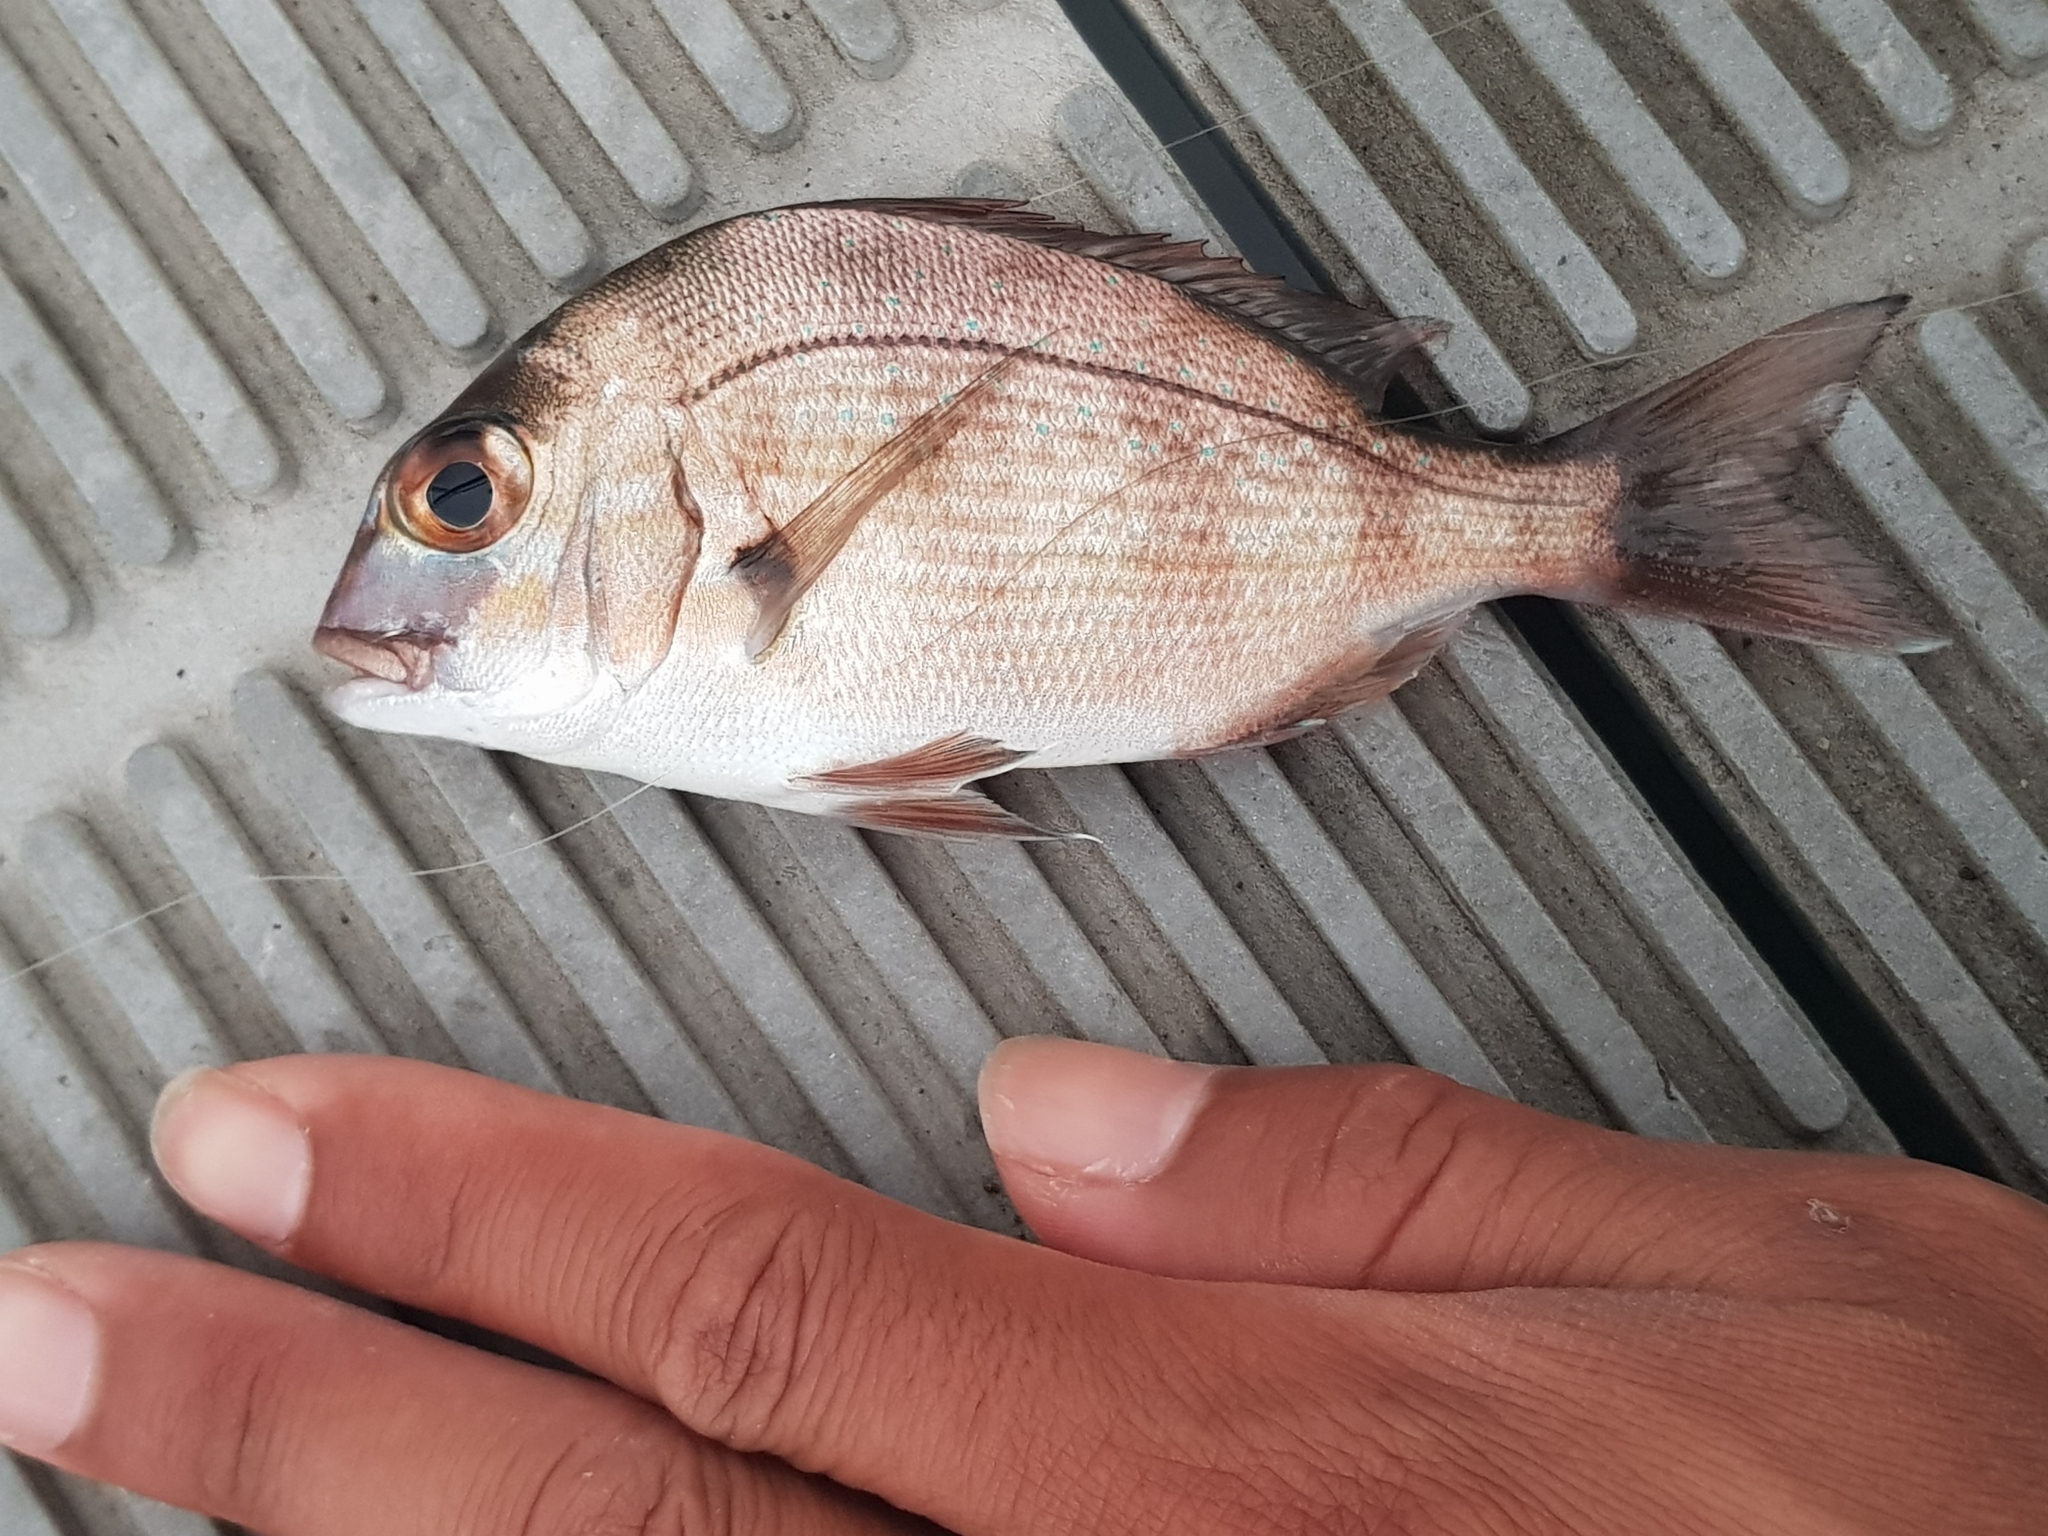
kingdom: Animalia
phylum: Chordata
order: Perciformes
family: Sparidae
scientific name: Sparidae
